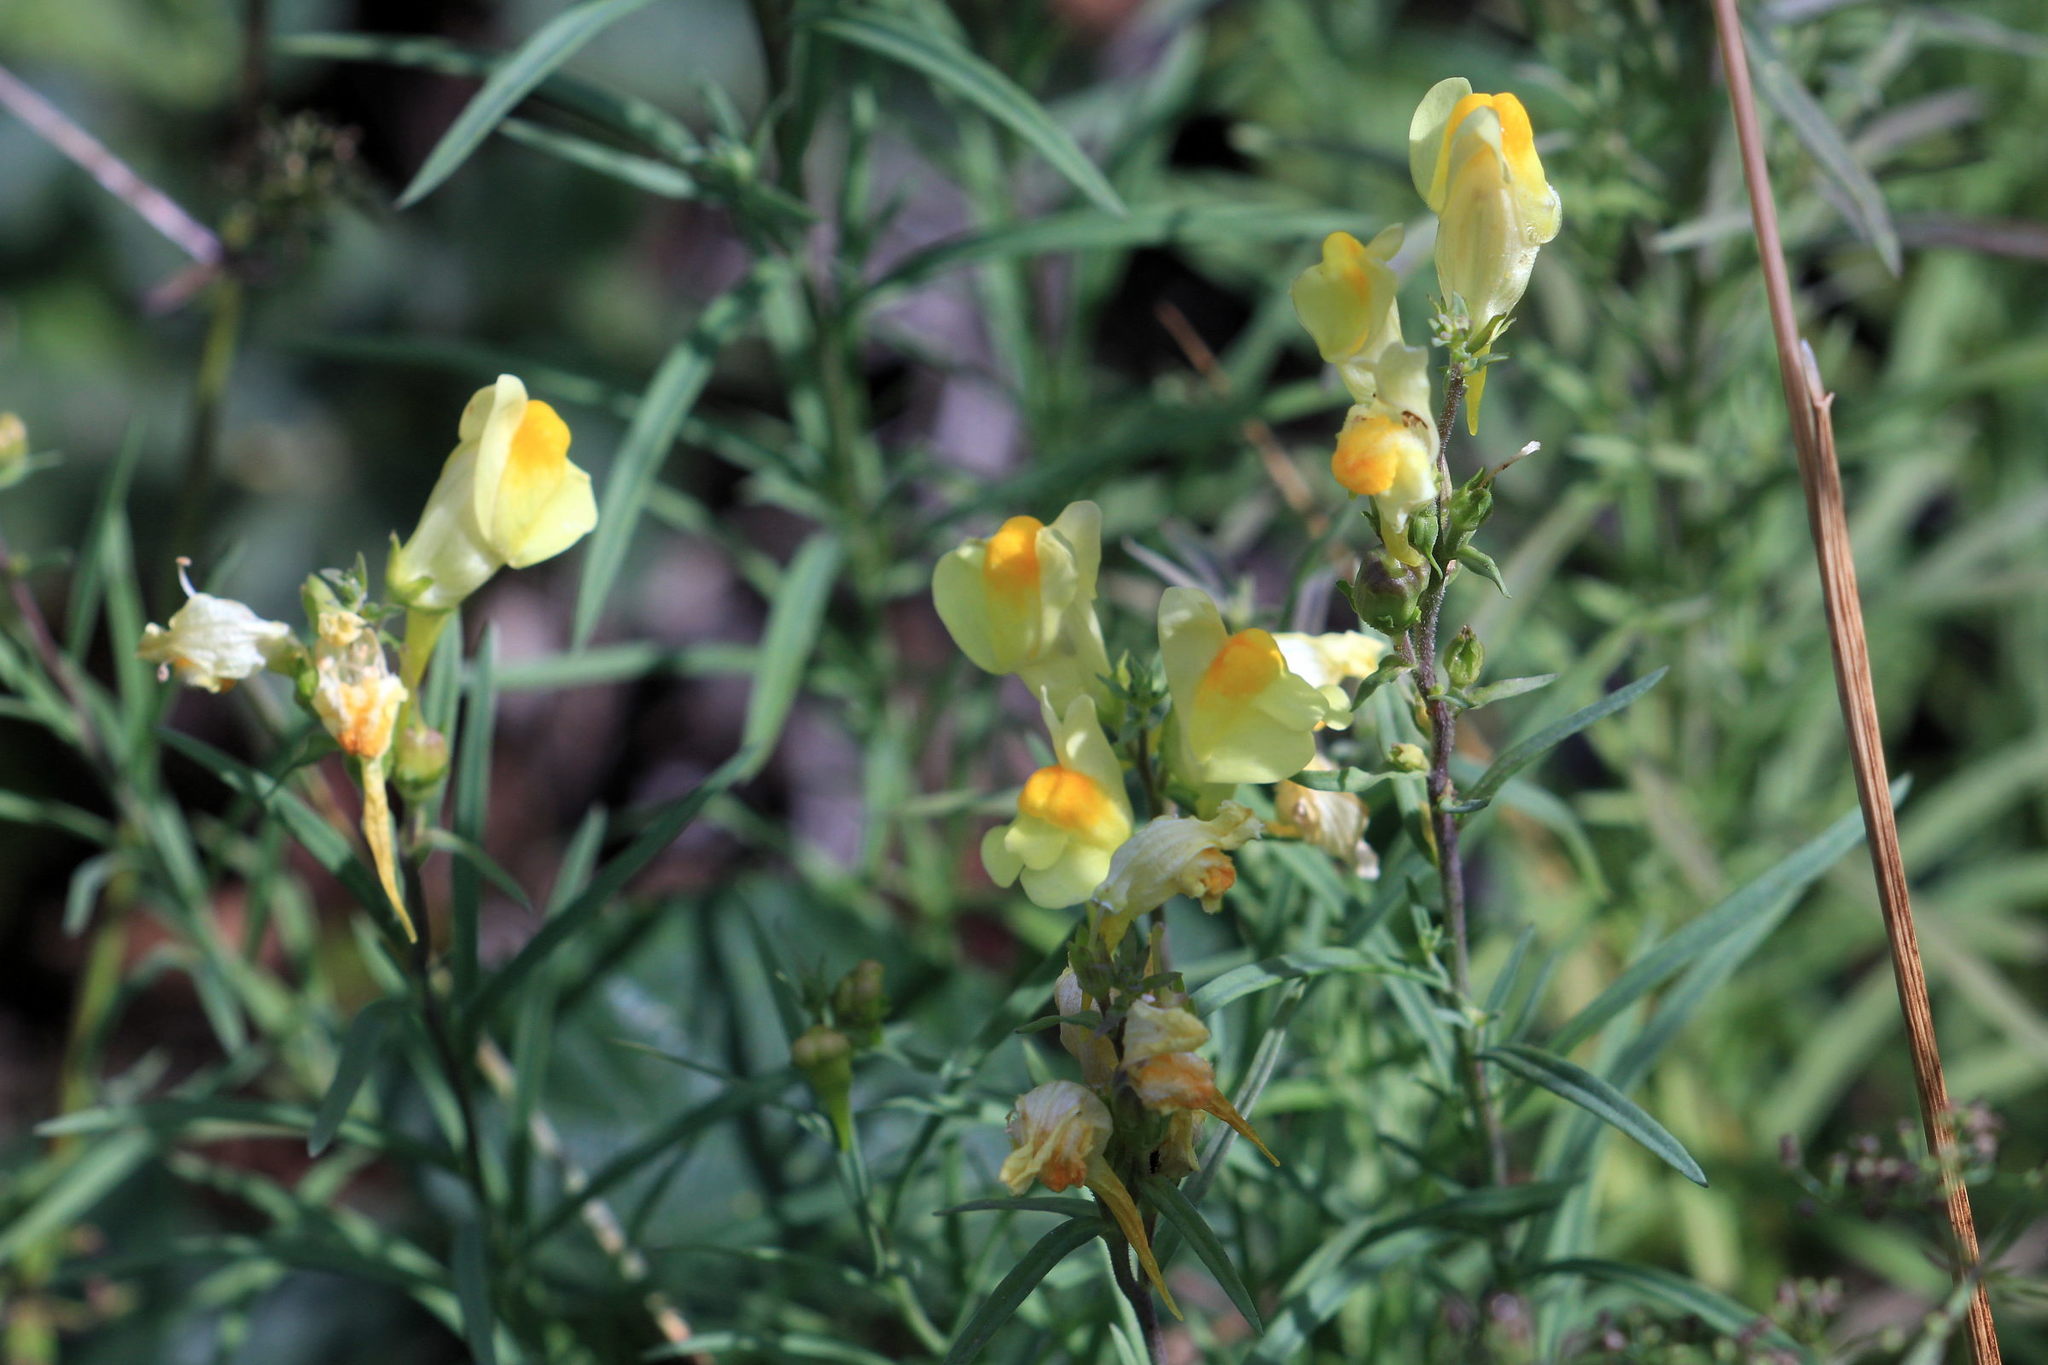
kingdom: Plantae
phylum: Tracheophyta
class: Magnoliopsida
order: Lamiales
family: Plantaginaceae
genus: Linaria
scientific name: Linaria vulgaris
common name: Butter and eggs
